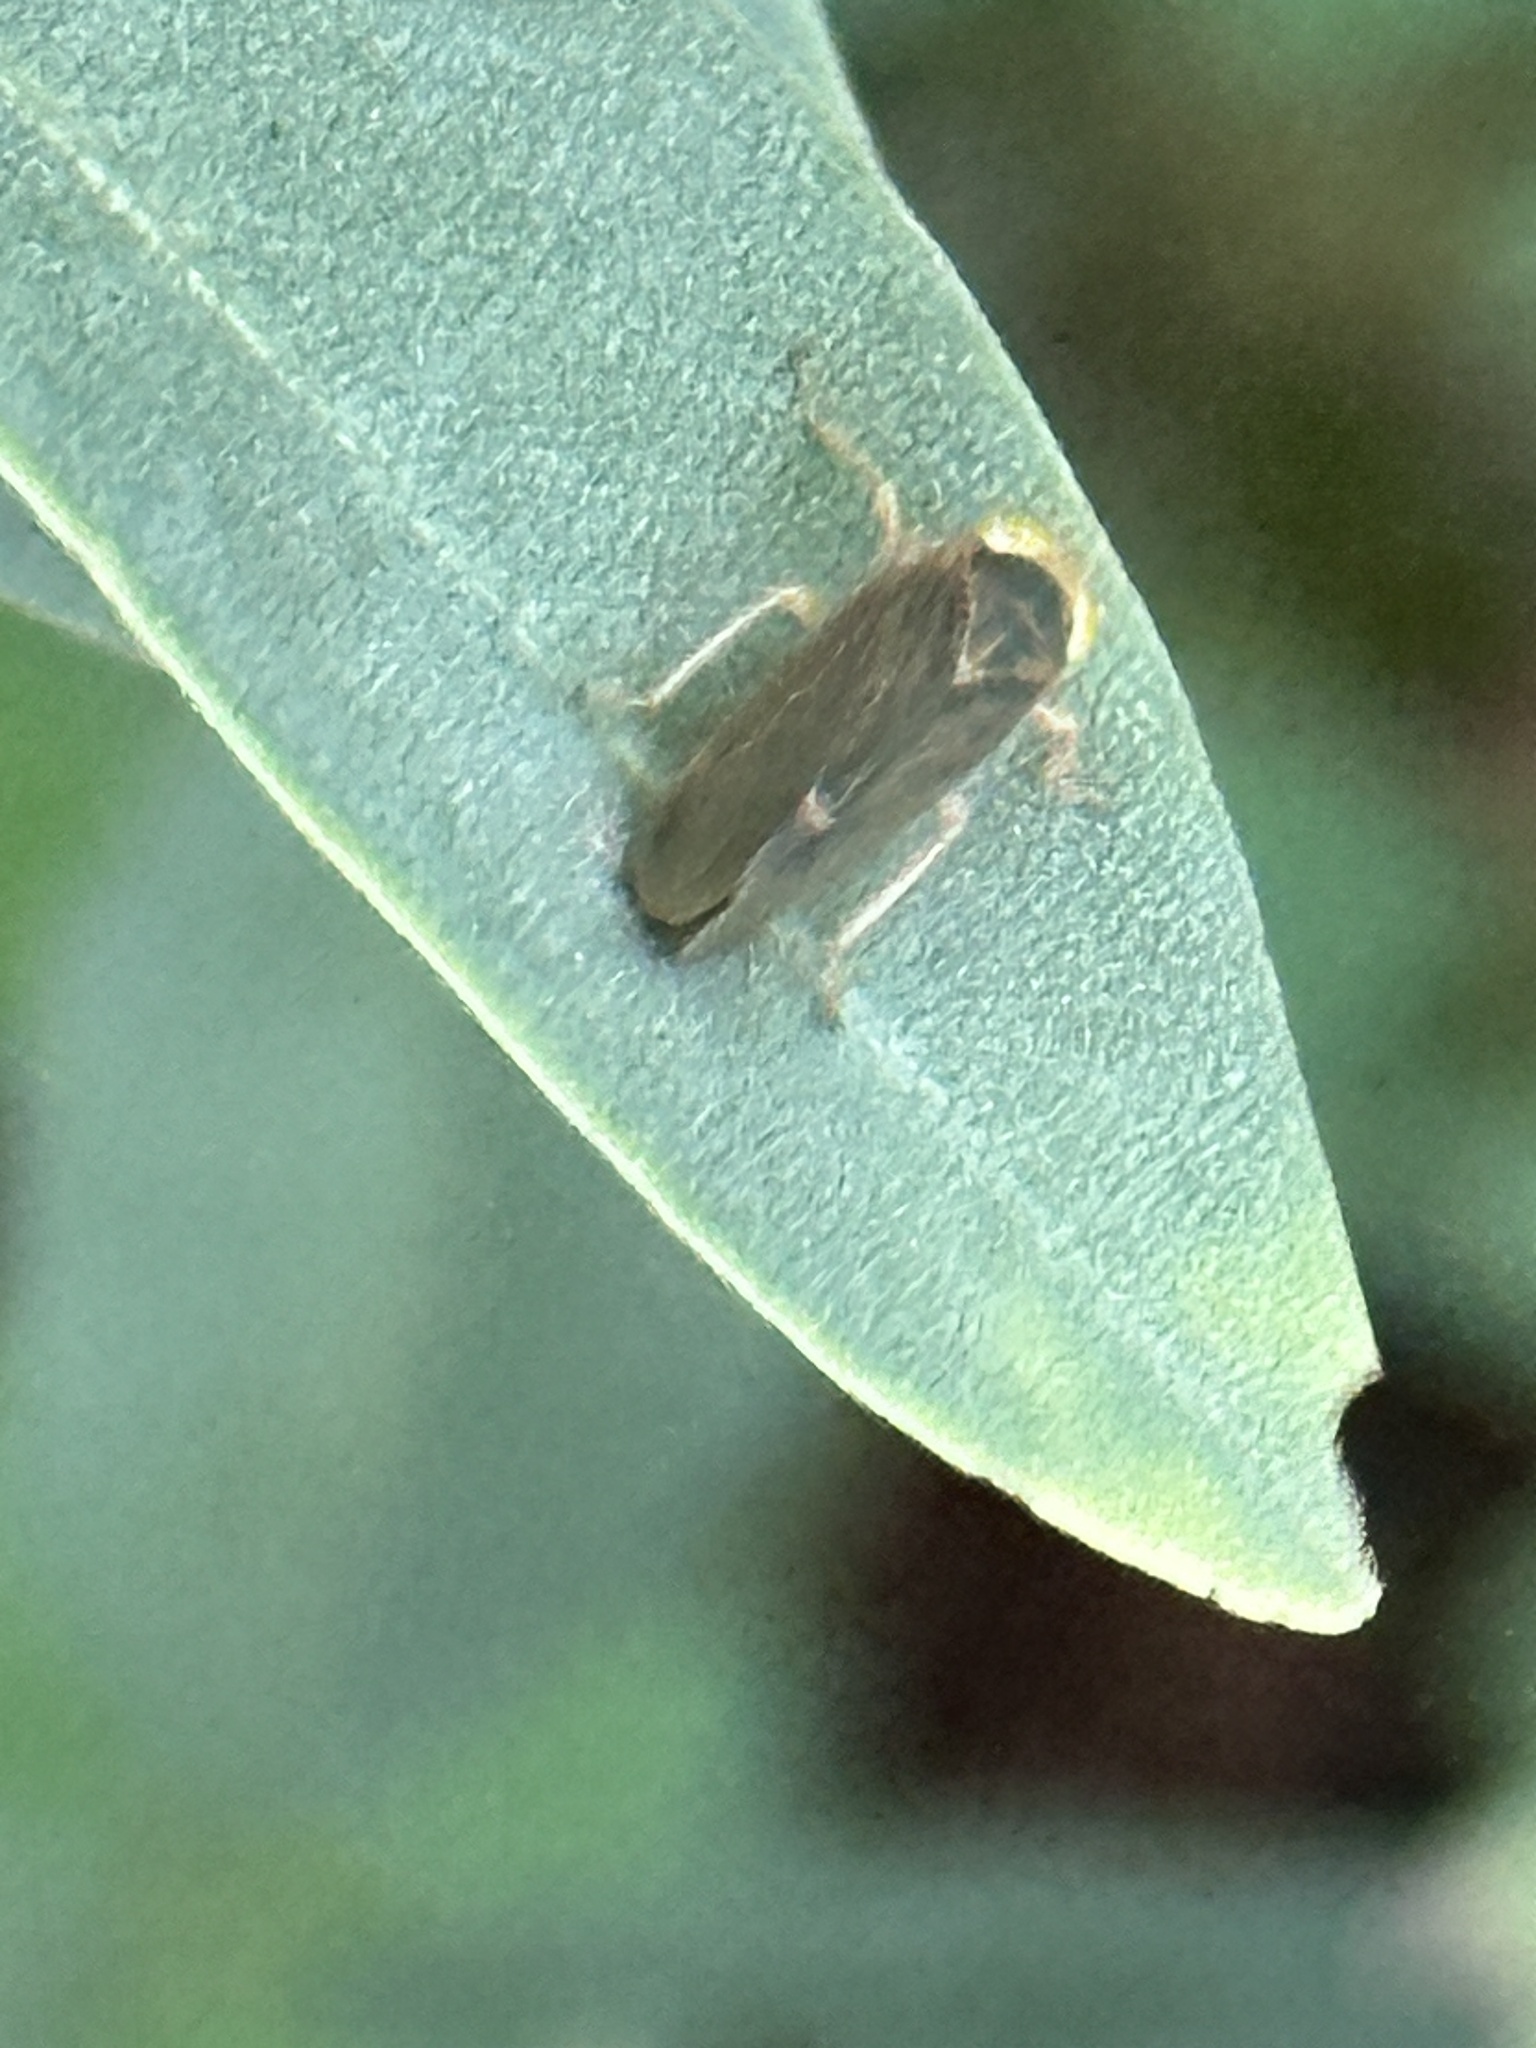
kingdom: Animalia
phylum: Arthropoda
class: Insecta
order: Hemiptera
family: Cicadellidae
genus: Jikradia
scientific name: Jikradia olitoria
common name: Coppery leafhopper
